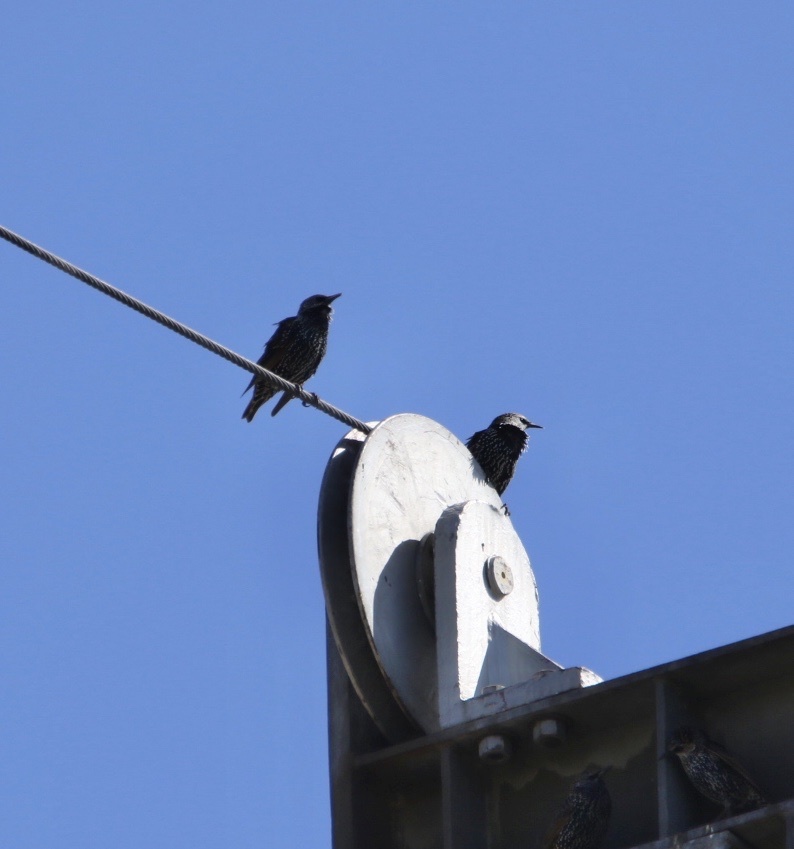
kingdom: Animalia
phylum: Chordata
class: Aves
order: Passeriformes
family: Sturnidae
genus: Sturnus
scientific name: Sturnus vulgaris
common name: Common starling
